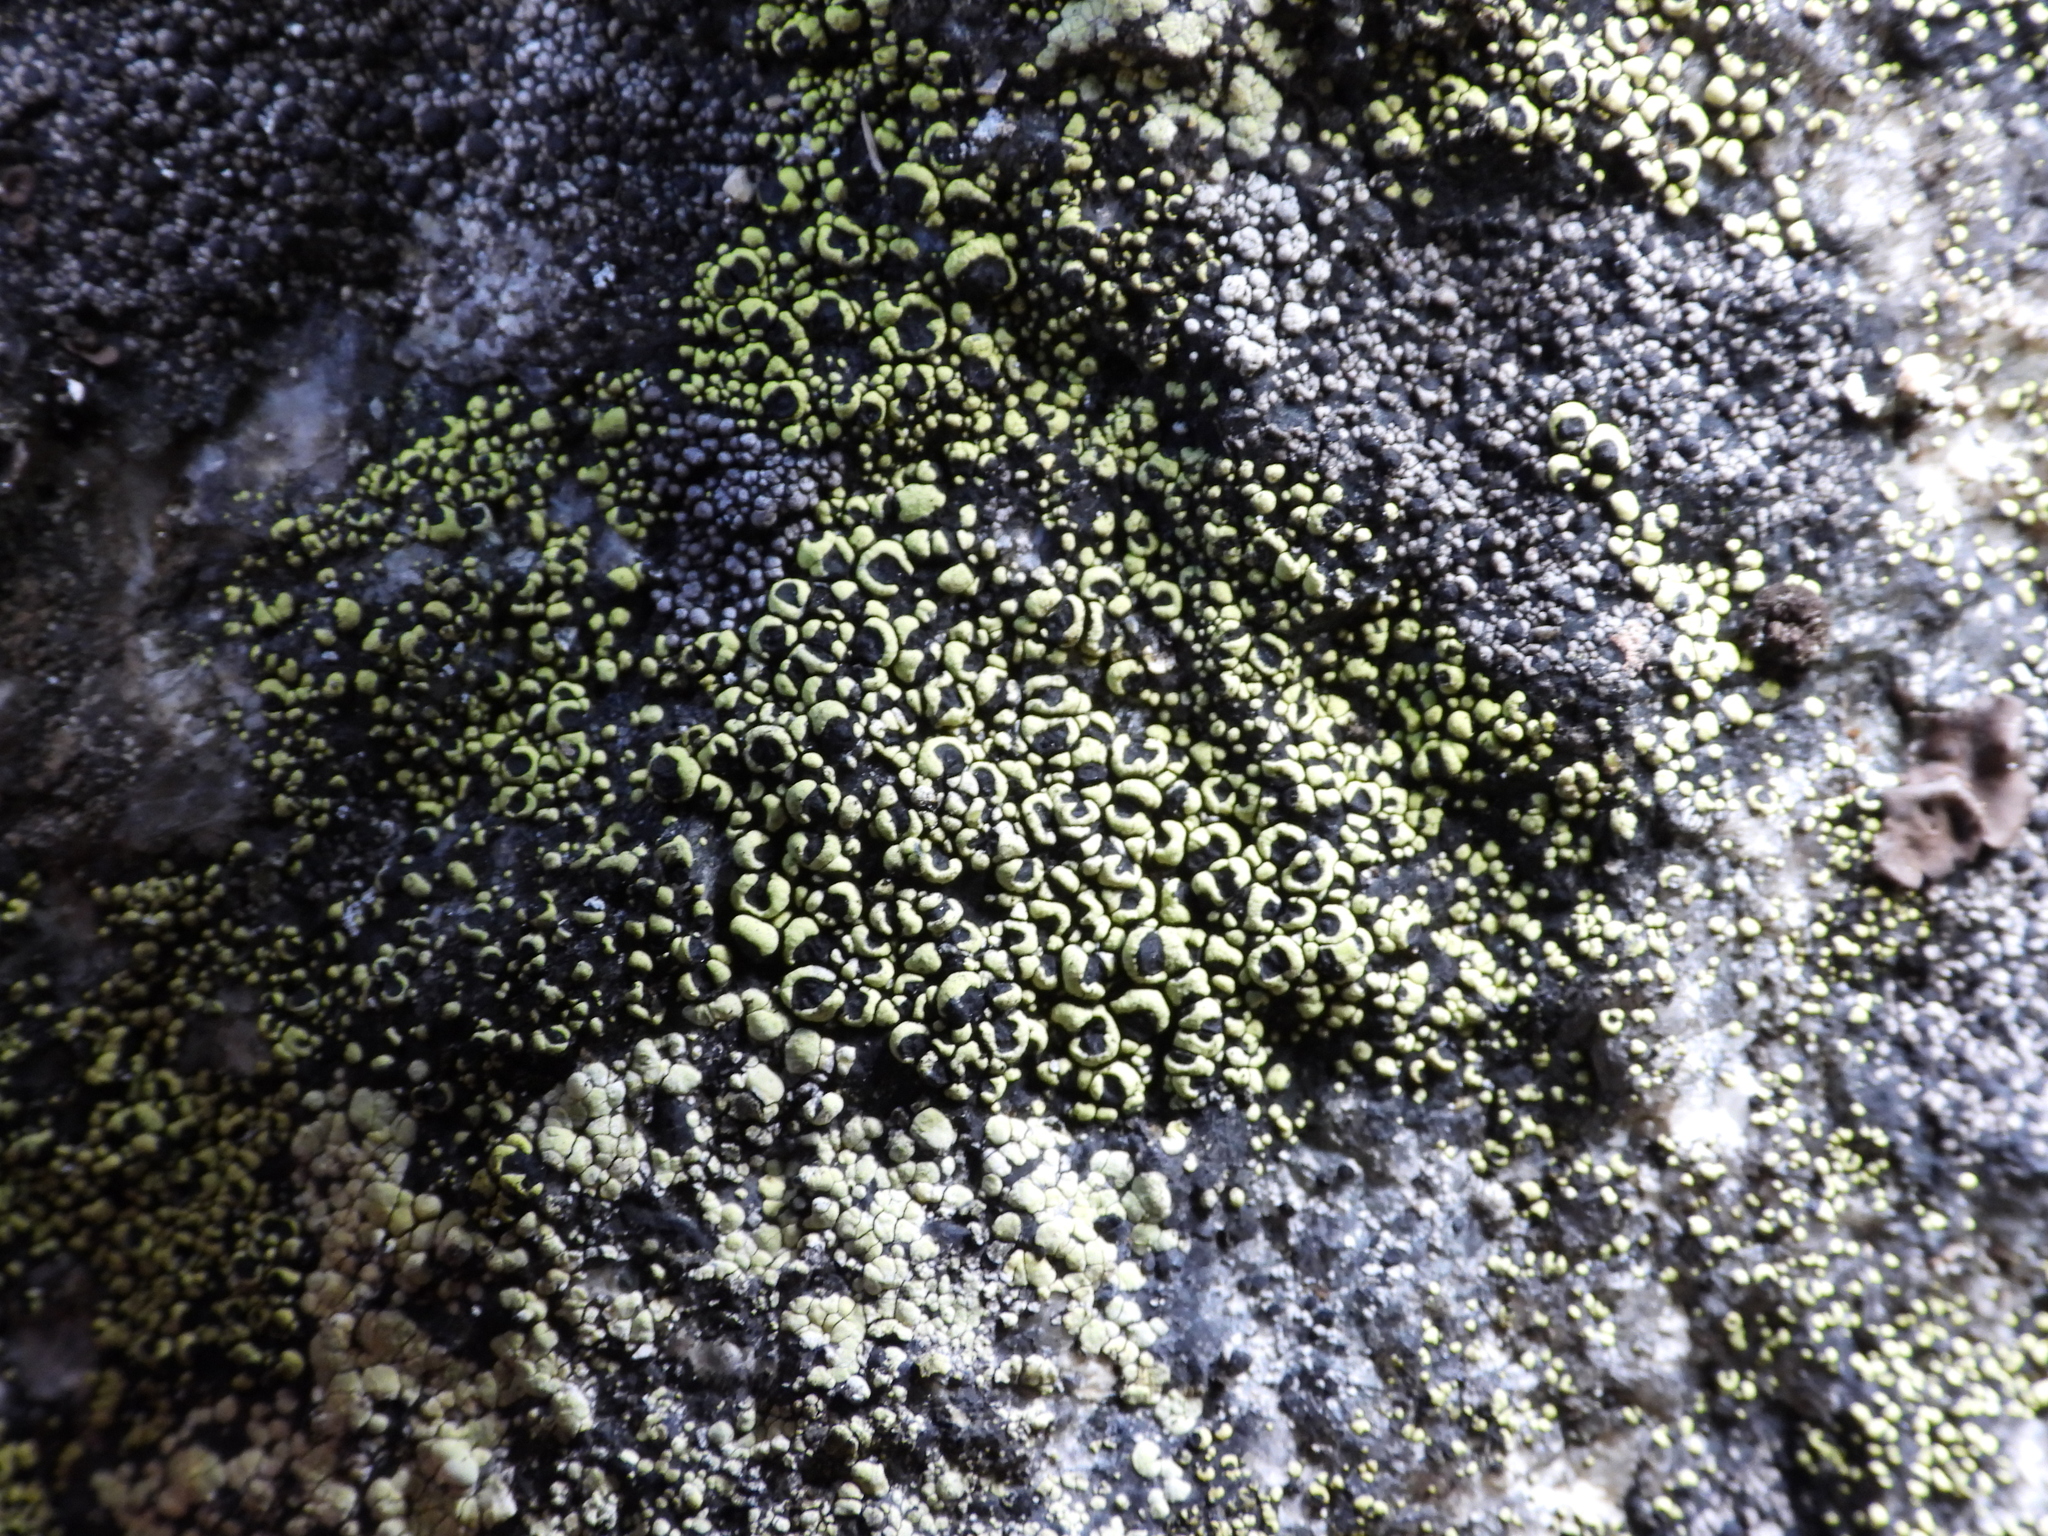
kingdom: Fungi
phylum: Ascomycota
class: Lecanoromycetes
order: Rhizocarpales
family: Rhizocarpaceae
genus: Rhizocarpon
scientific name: Rhizocarpon lecanorinum
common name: Crescent map lichen
